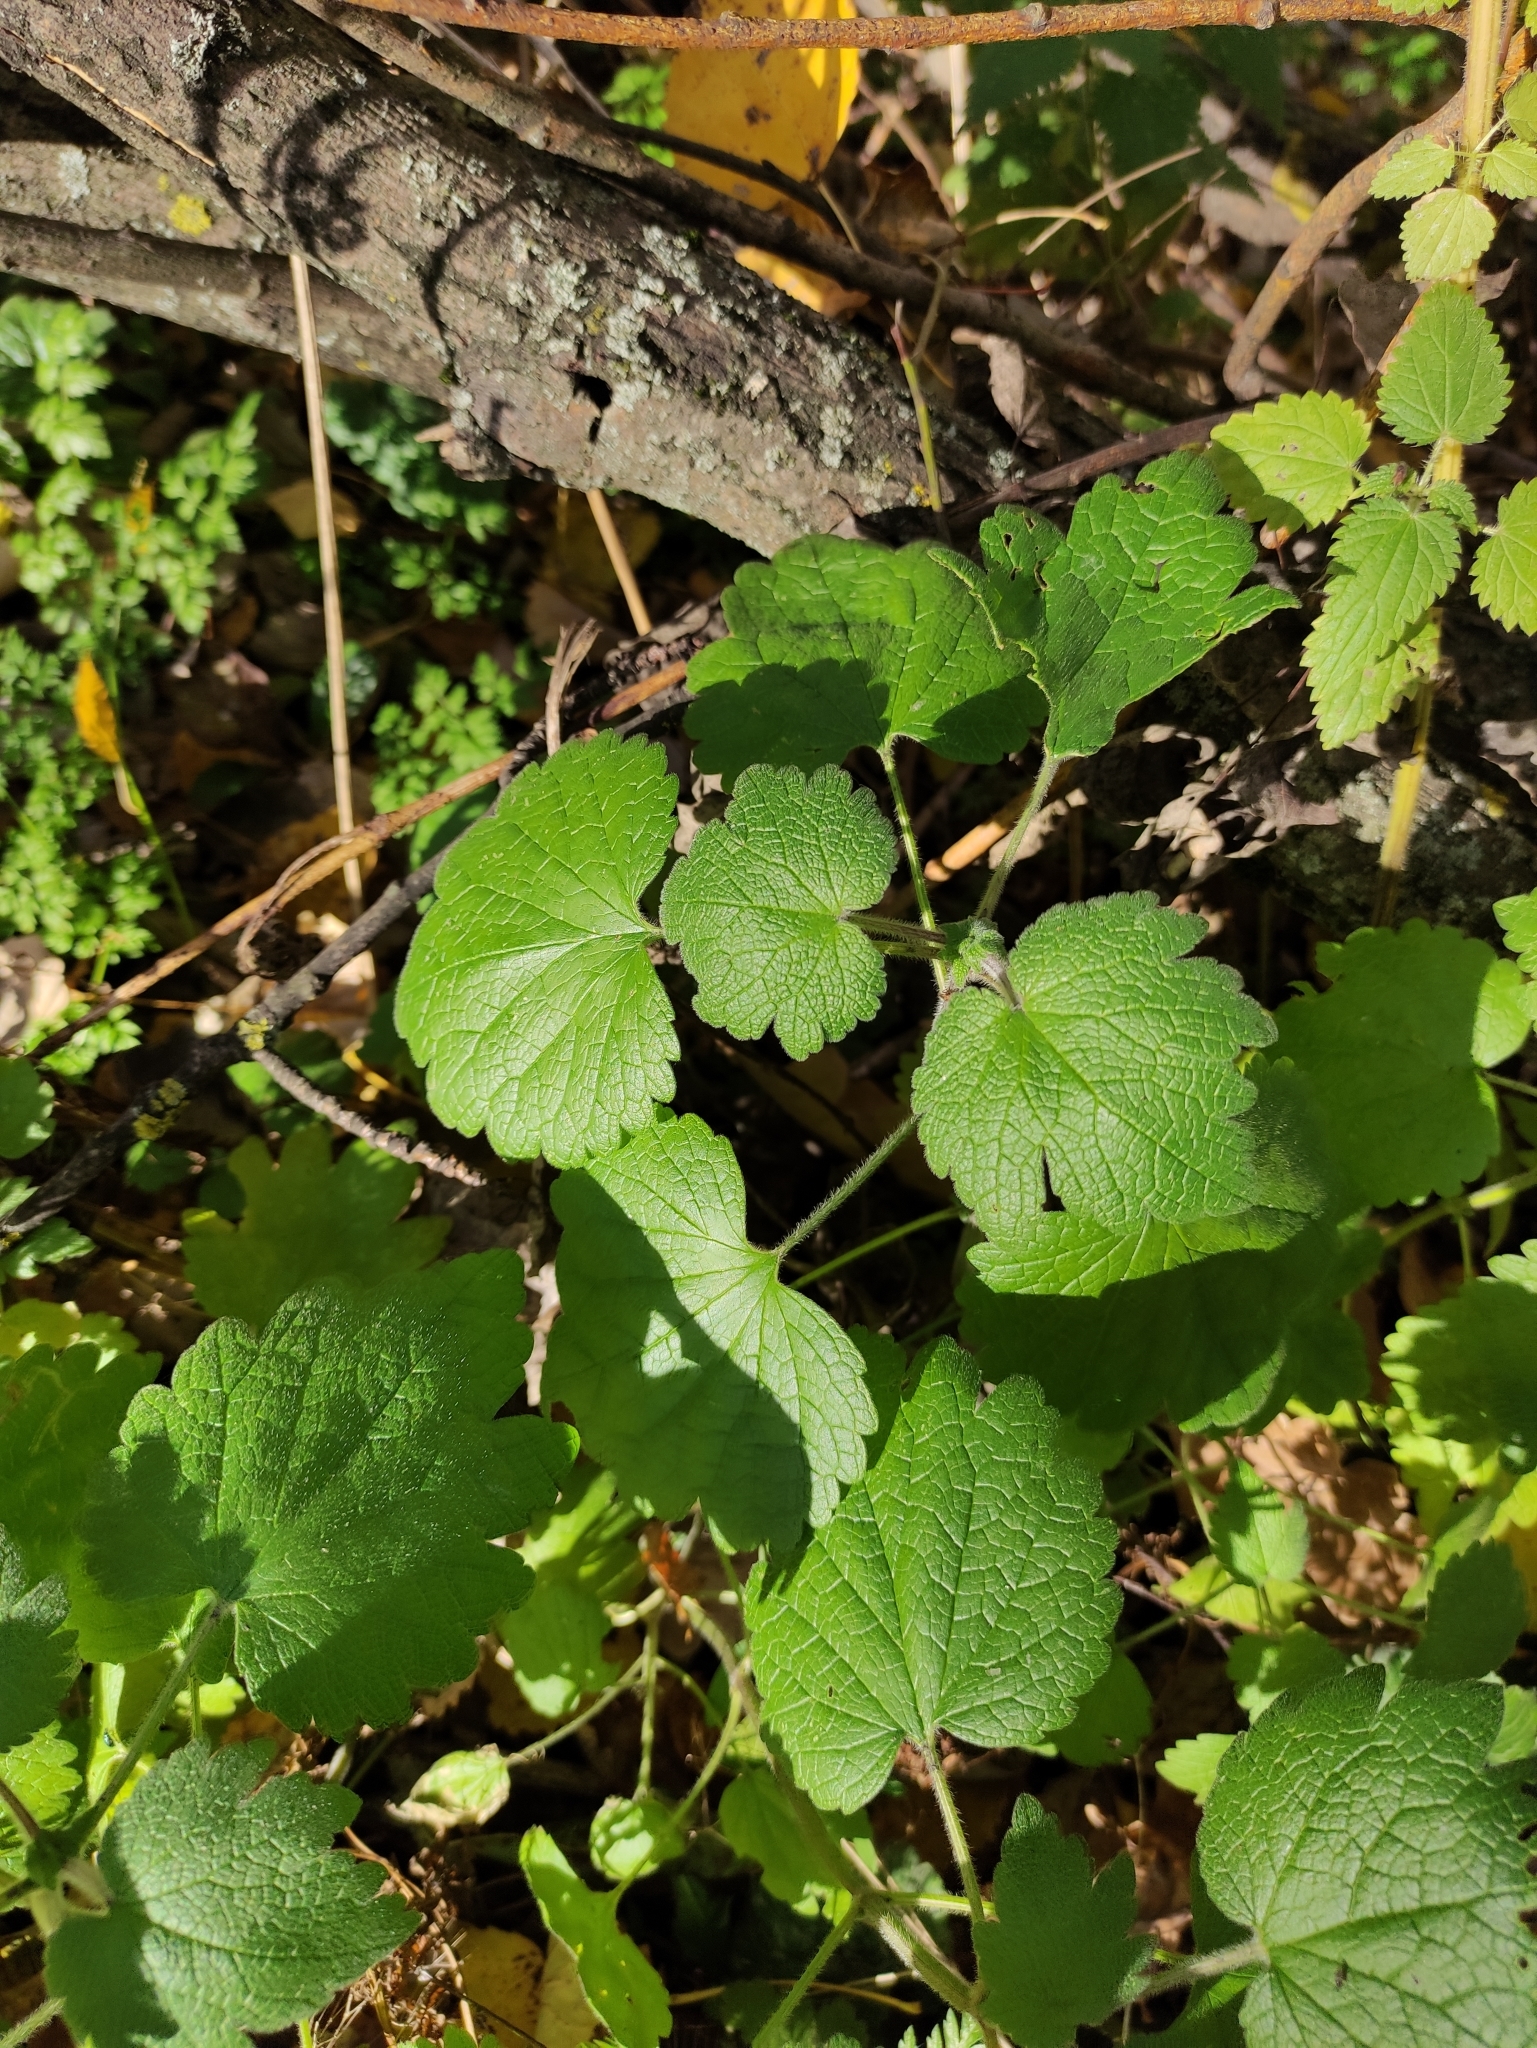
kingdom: Plantae
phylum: Tracheophyta
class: Magnoliopsida
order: Lamiales
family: Lamiaceae
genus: Leonurus
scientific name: Leonurus quinquelobatus
